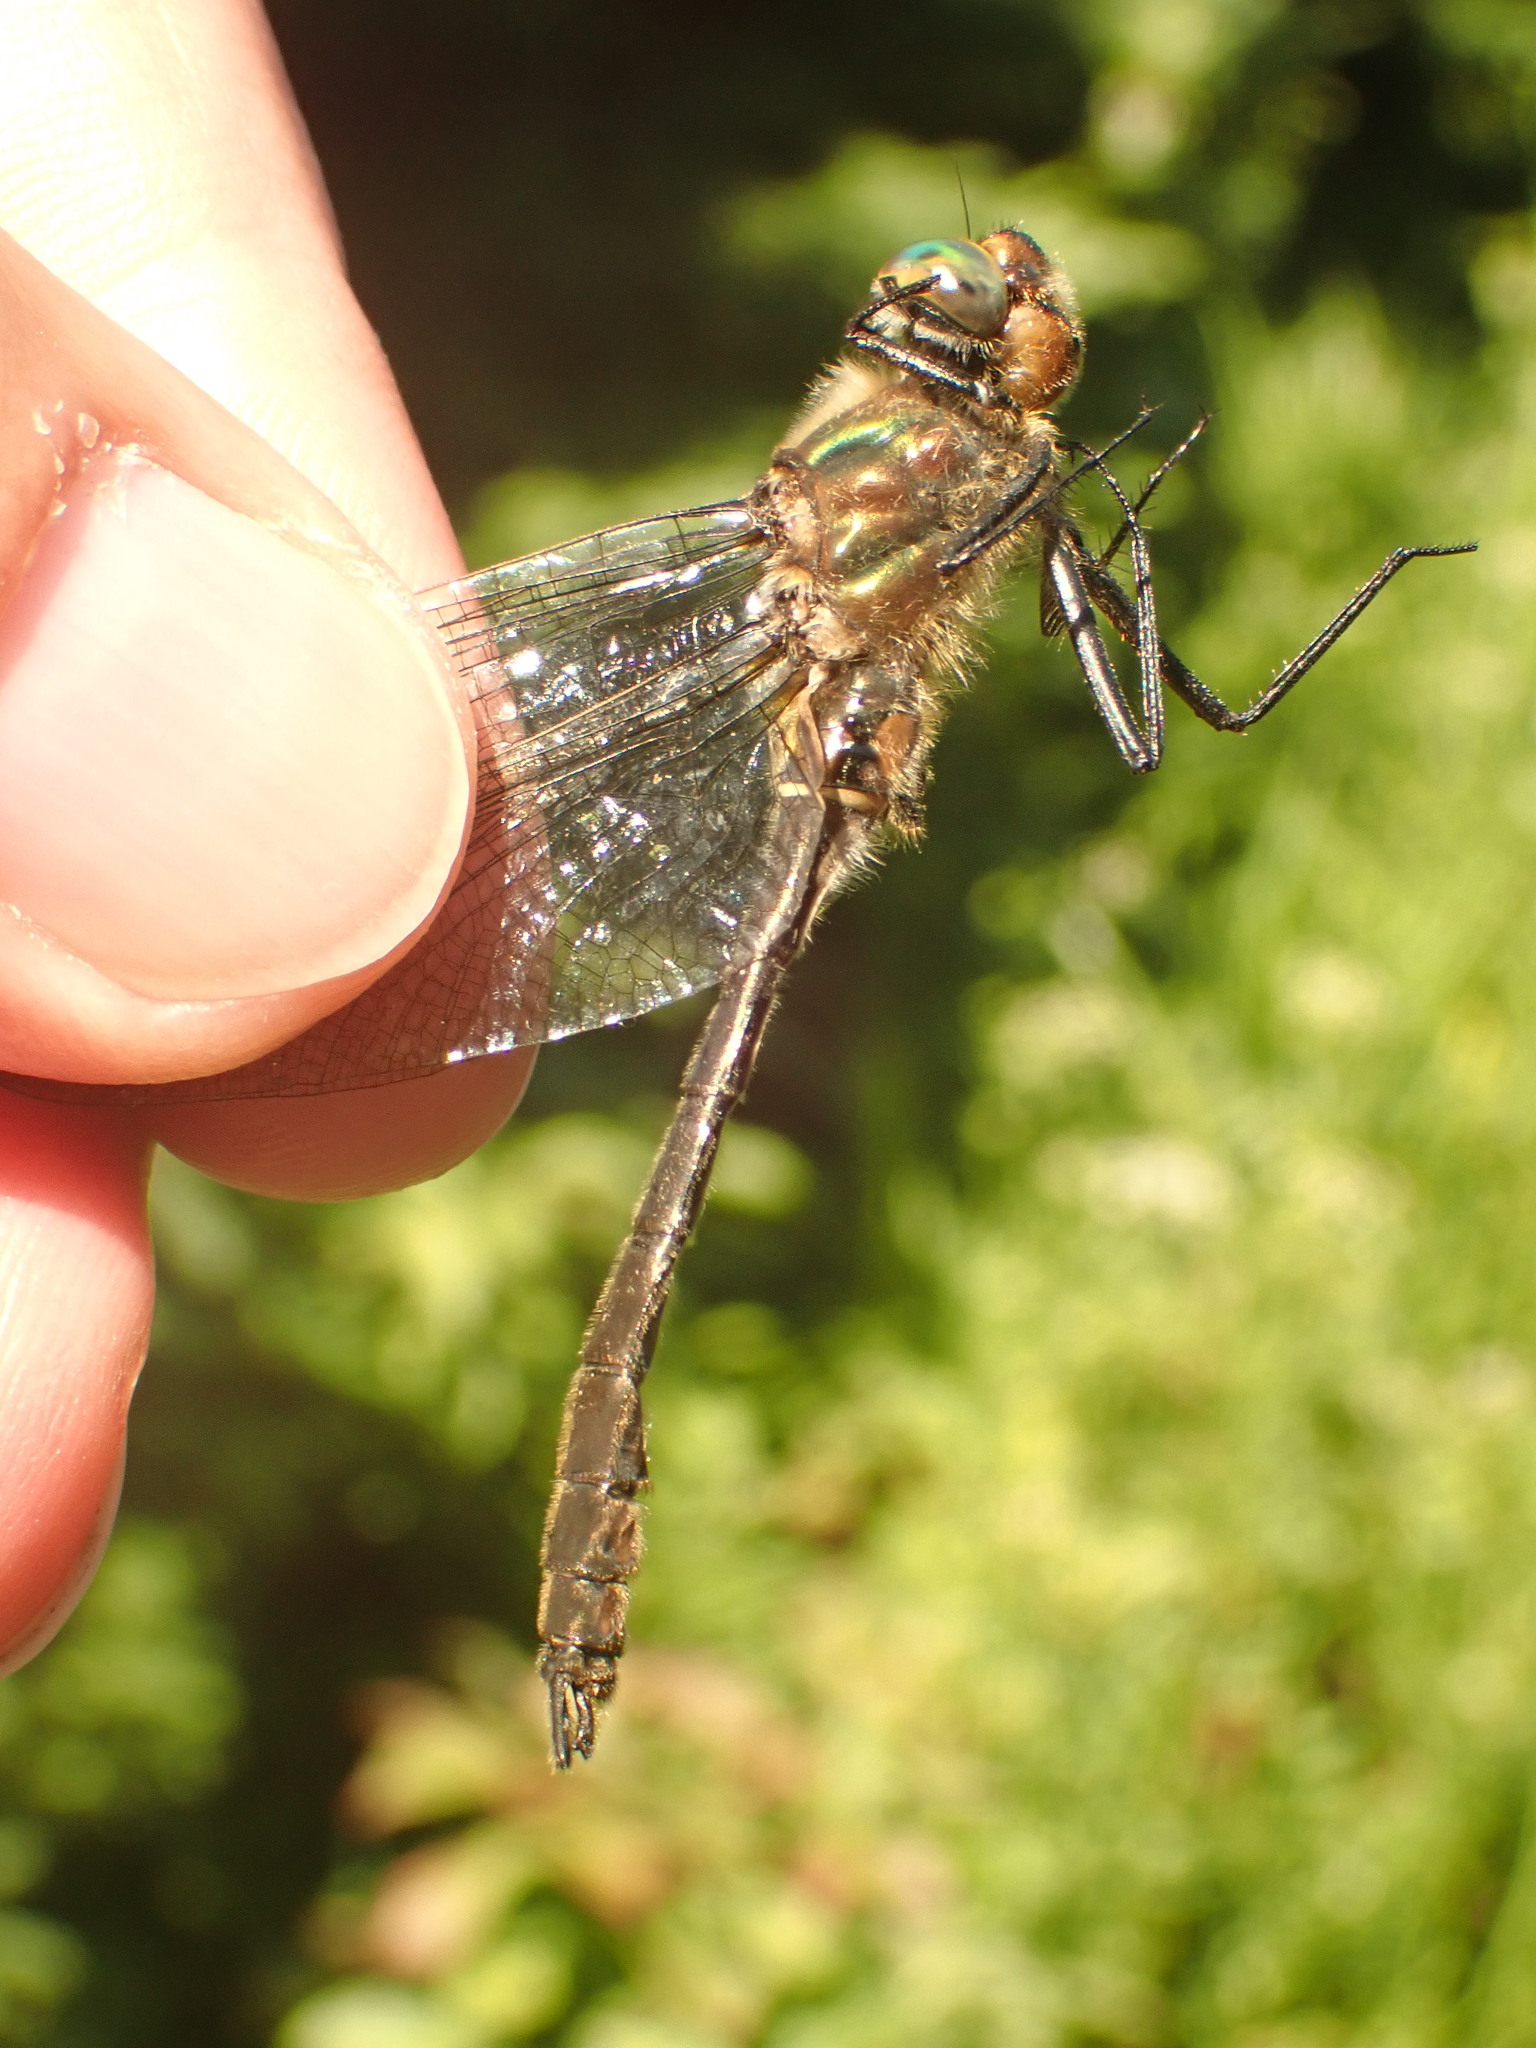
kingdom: Animalia
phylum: Arthropoda
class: Insecta
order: Odonata
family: Corduliidae
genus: Cordulia
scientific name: Cordulia shurtleffii
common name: American emerald
